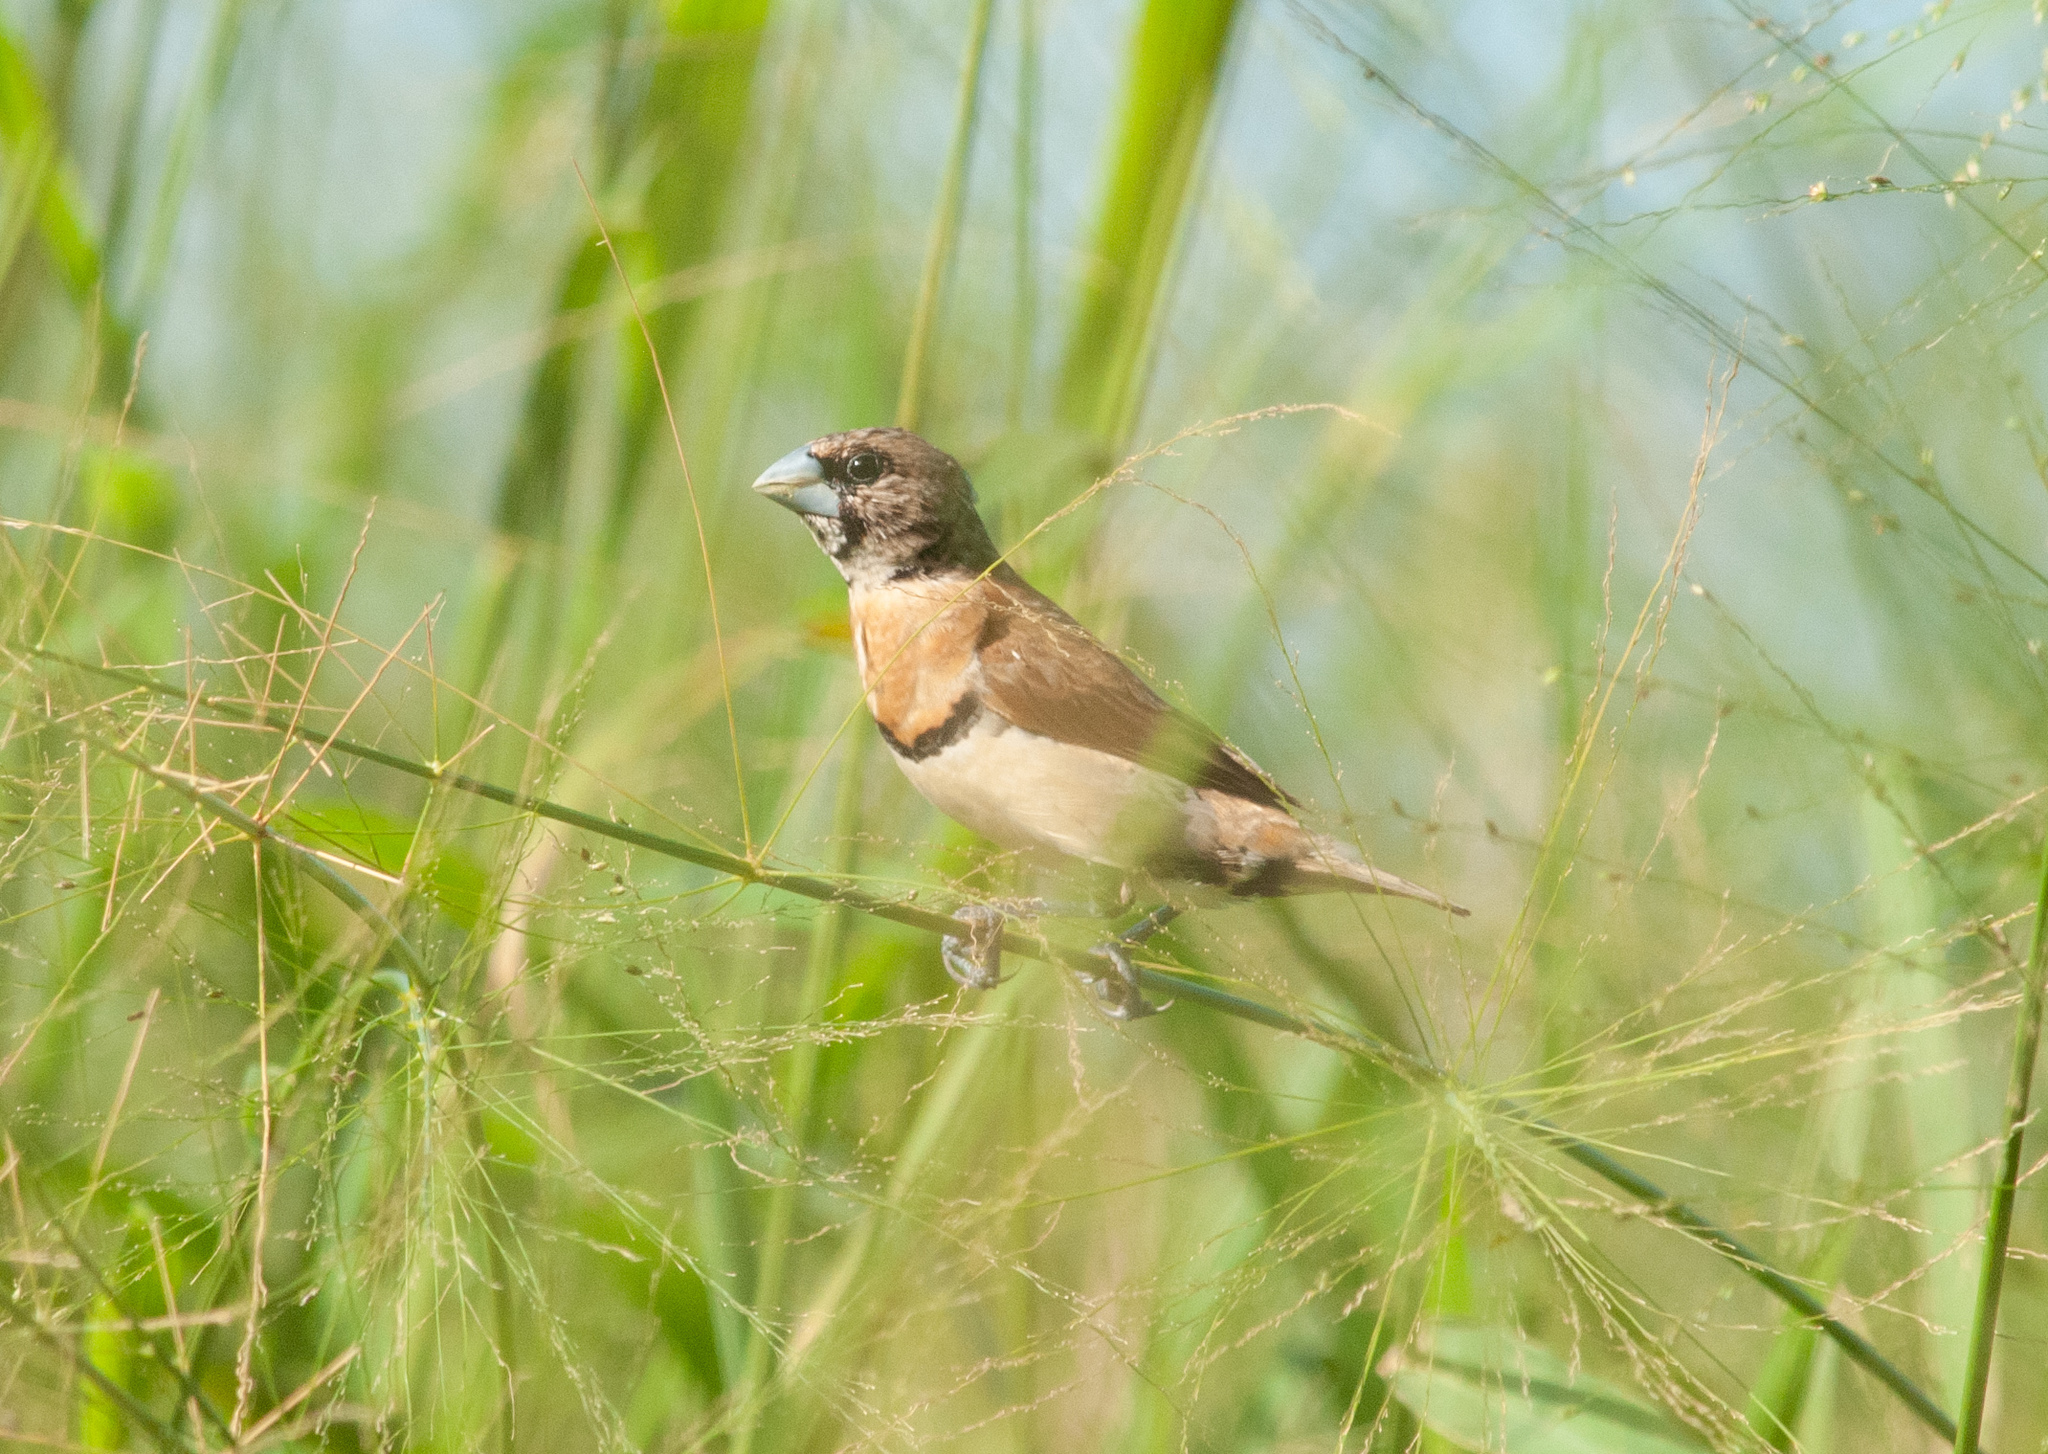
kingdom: Animalia
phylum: Chordata
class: Aves
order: Passeriformes
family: Estrildidae
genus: Lonchura
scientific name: Lonchura castaneothorax
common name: Chestnut-breasted mannikin
